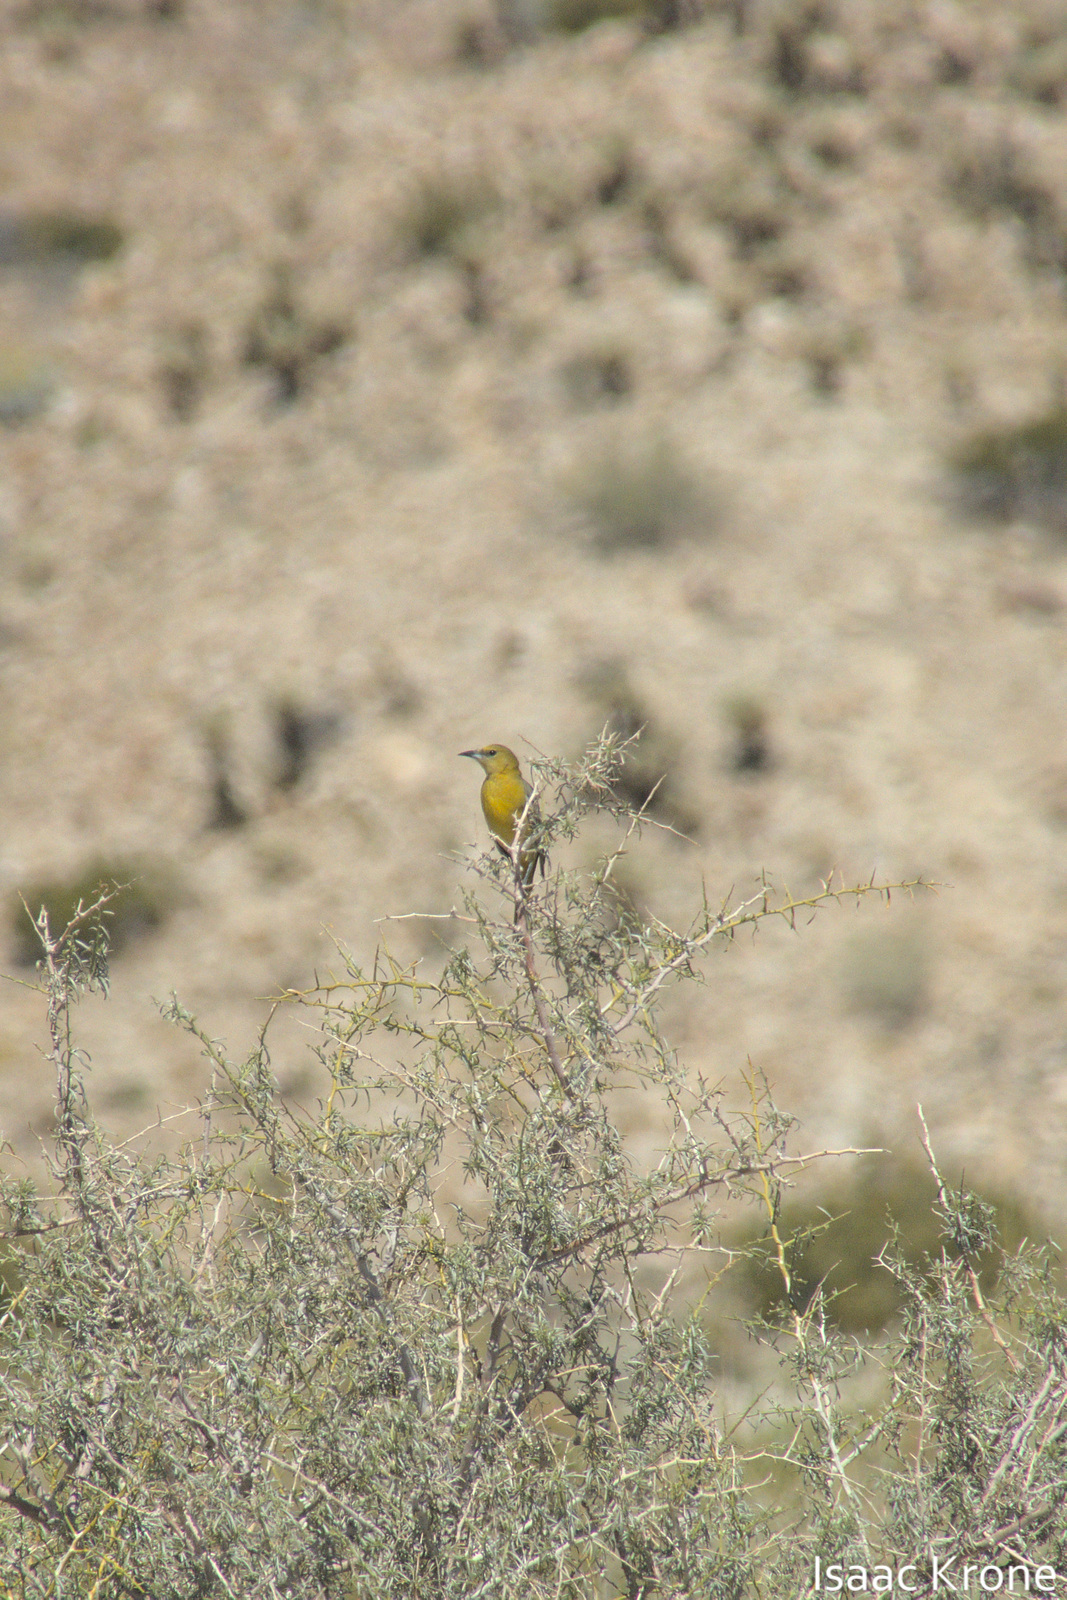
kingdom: Animalia
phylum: Chordata
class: Aves
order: Passeriformes
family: Icteridae
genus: Icterus
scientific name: Icterus cucullatus
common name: Hooded oriole
